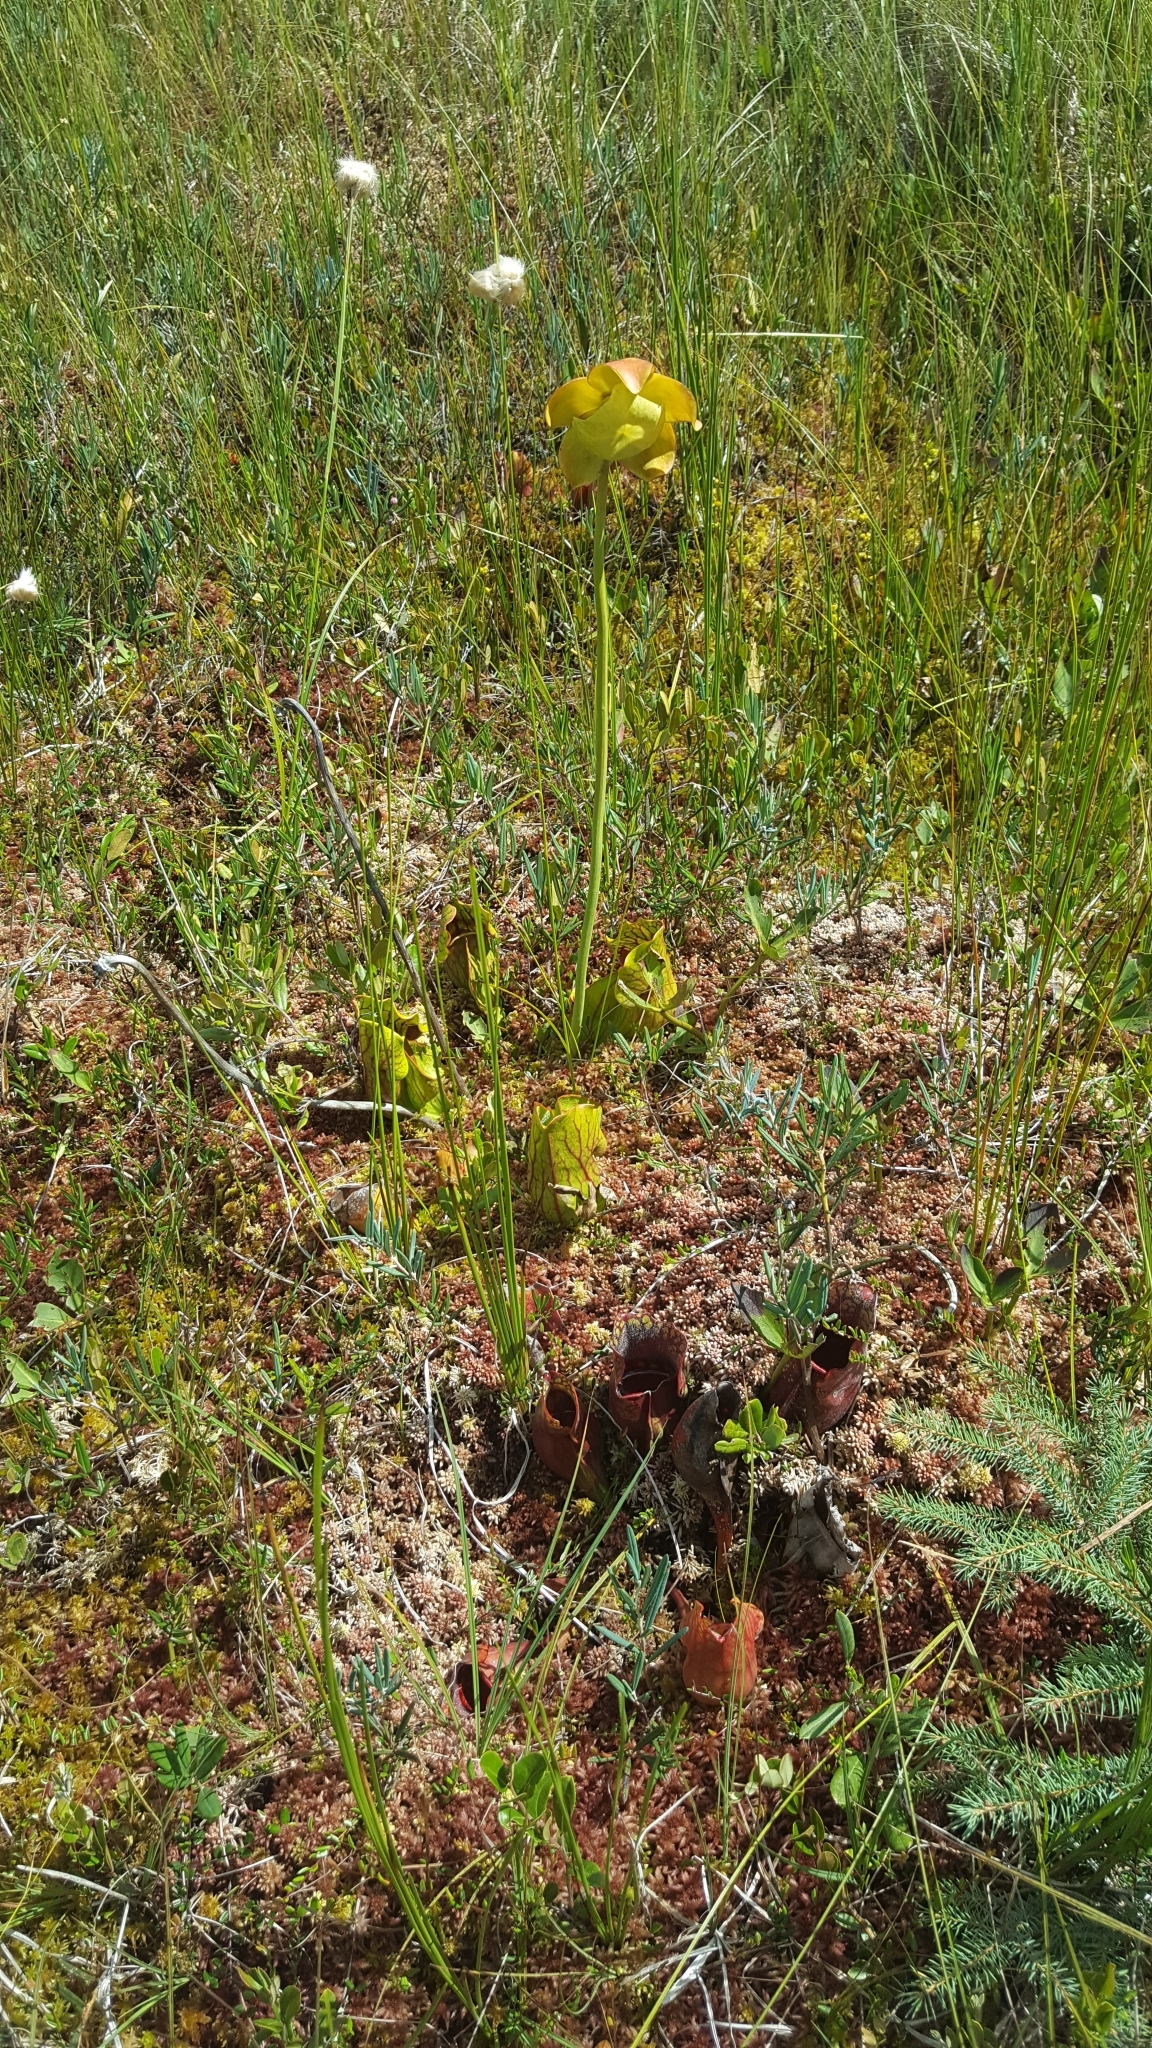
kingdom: Plantae
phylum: Tracheophyta
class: Magnoliopsida
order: Ericales
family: Sarraceniaceae
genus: Sarracenia
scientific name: Sarracenia purpurea
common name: Pitcherplant
